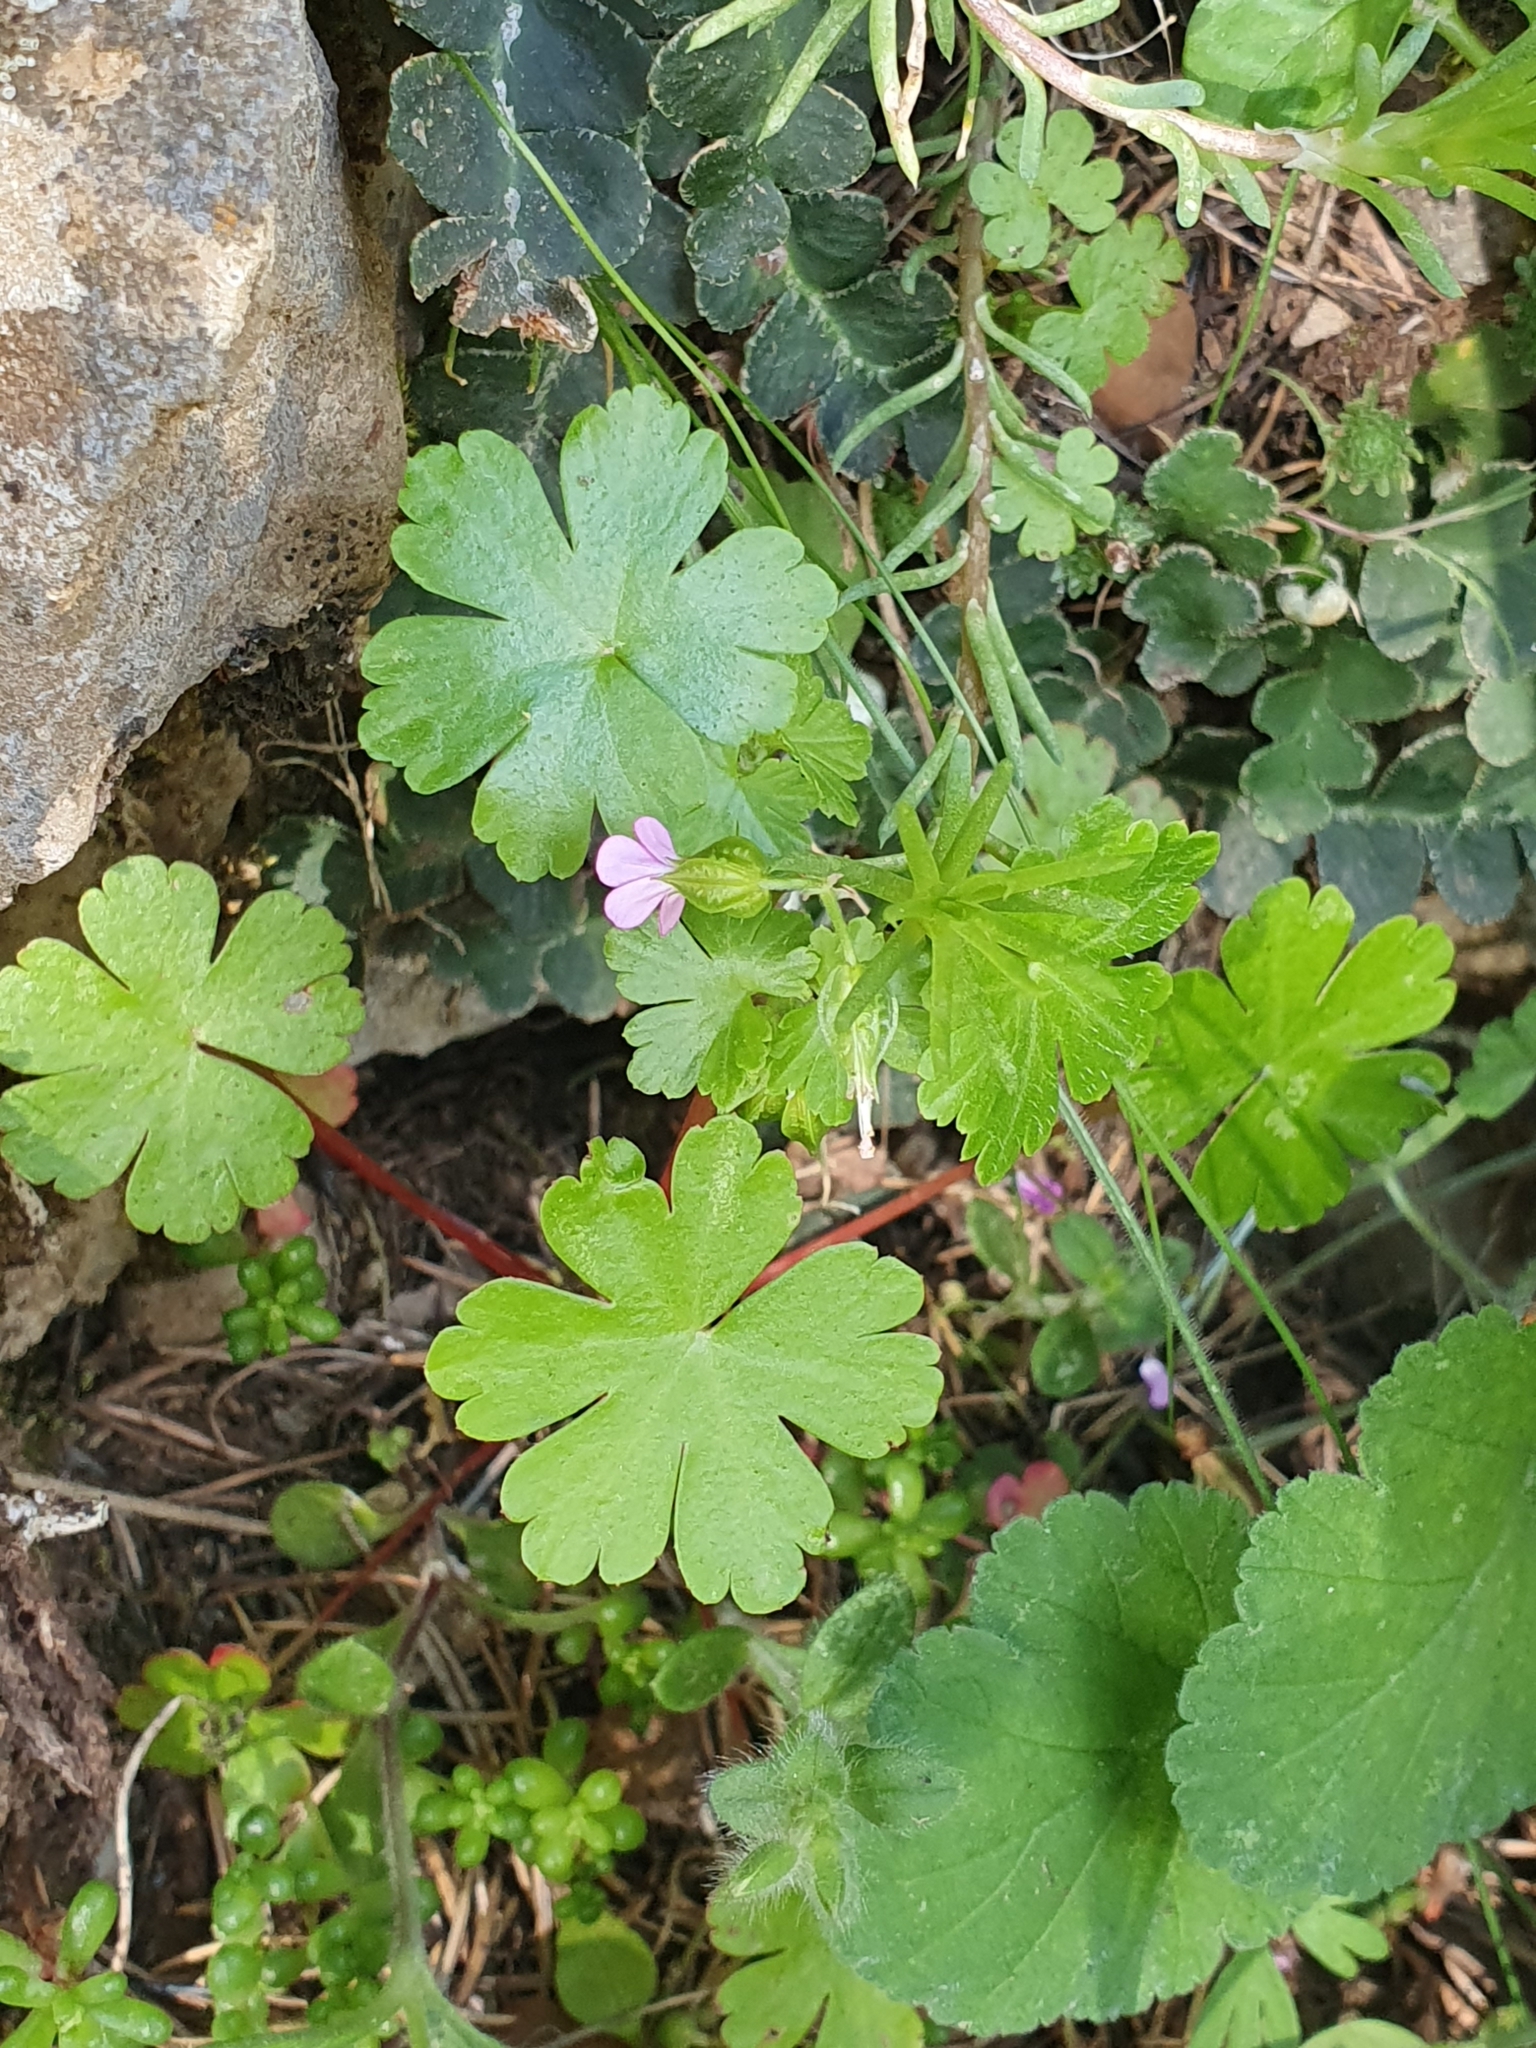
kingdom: Plantae
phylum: Tracheophyta
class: Magnoliopsida
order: Geraniales
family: Geraniaceae
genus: Geranium
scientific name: Geranium lucidum
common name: Shining crane's-bill
